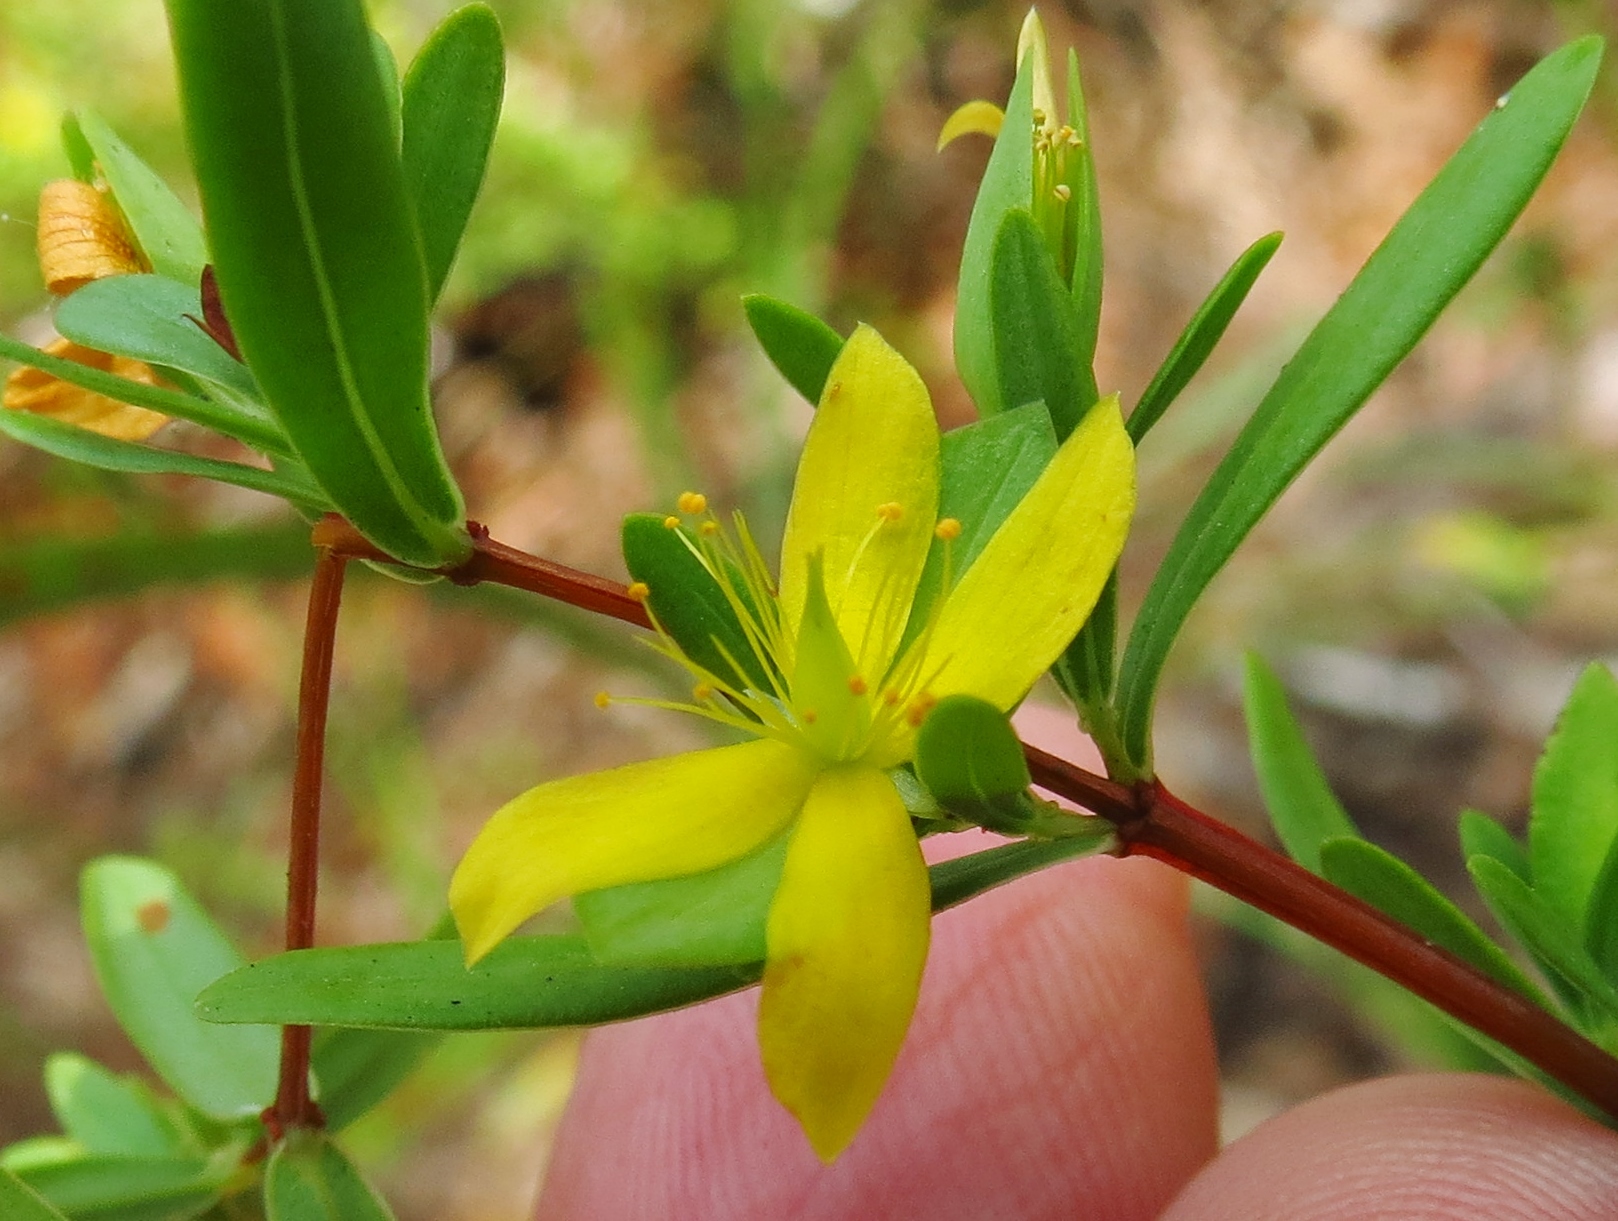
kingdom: Plantae
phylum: Tracheophyta
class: Magnoliopsida
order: Malpighiales
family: Hypericaceae
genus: Hypericum
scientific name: Hypericum hypericoides
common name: St. andrew's cross
